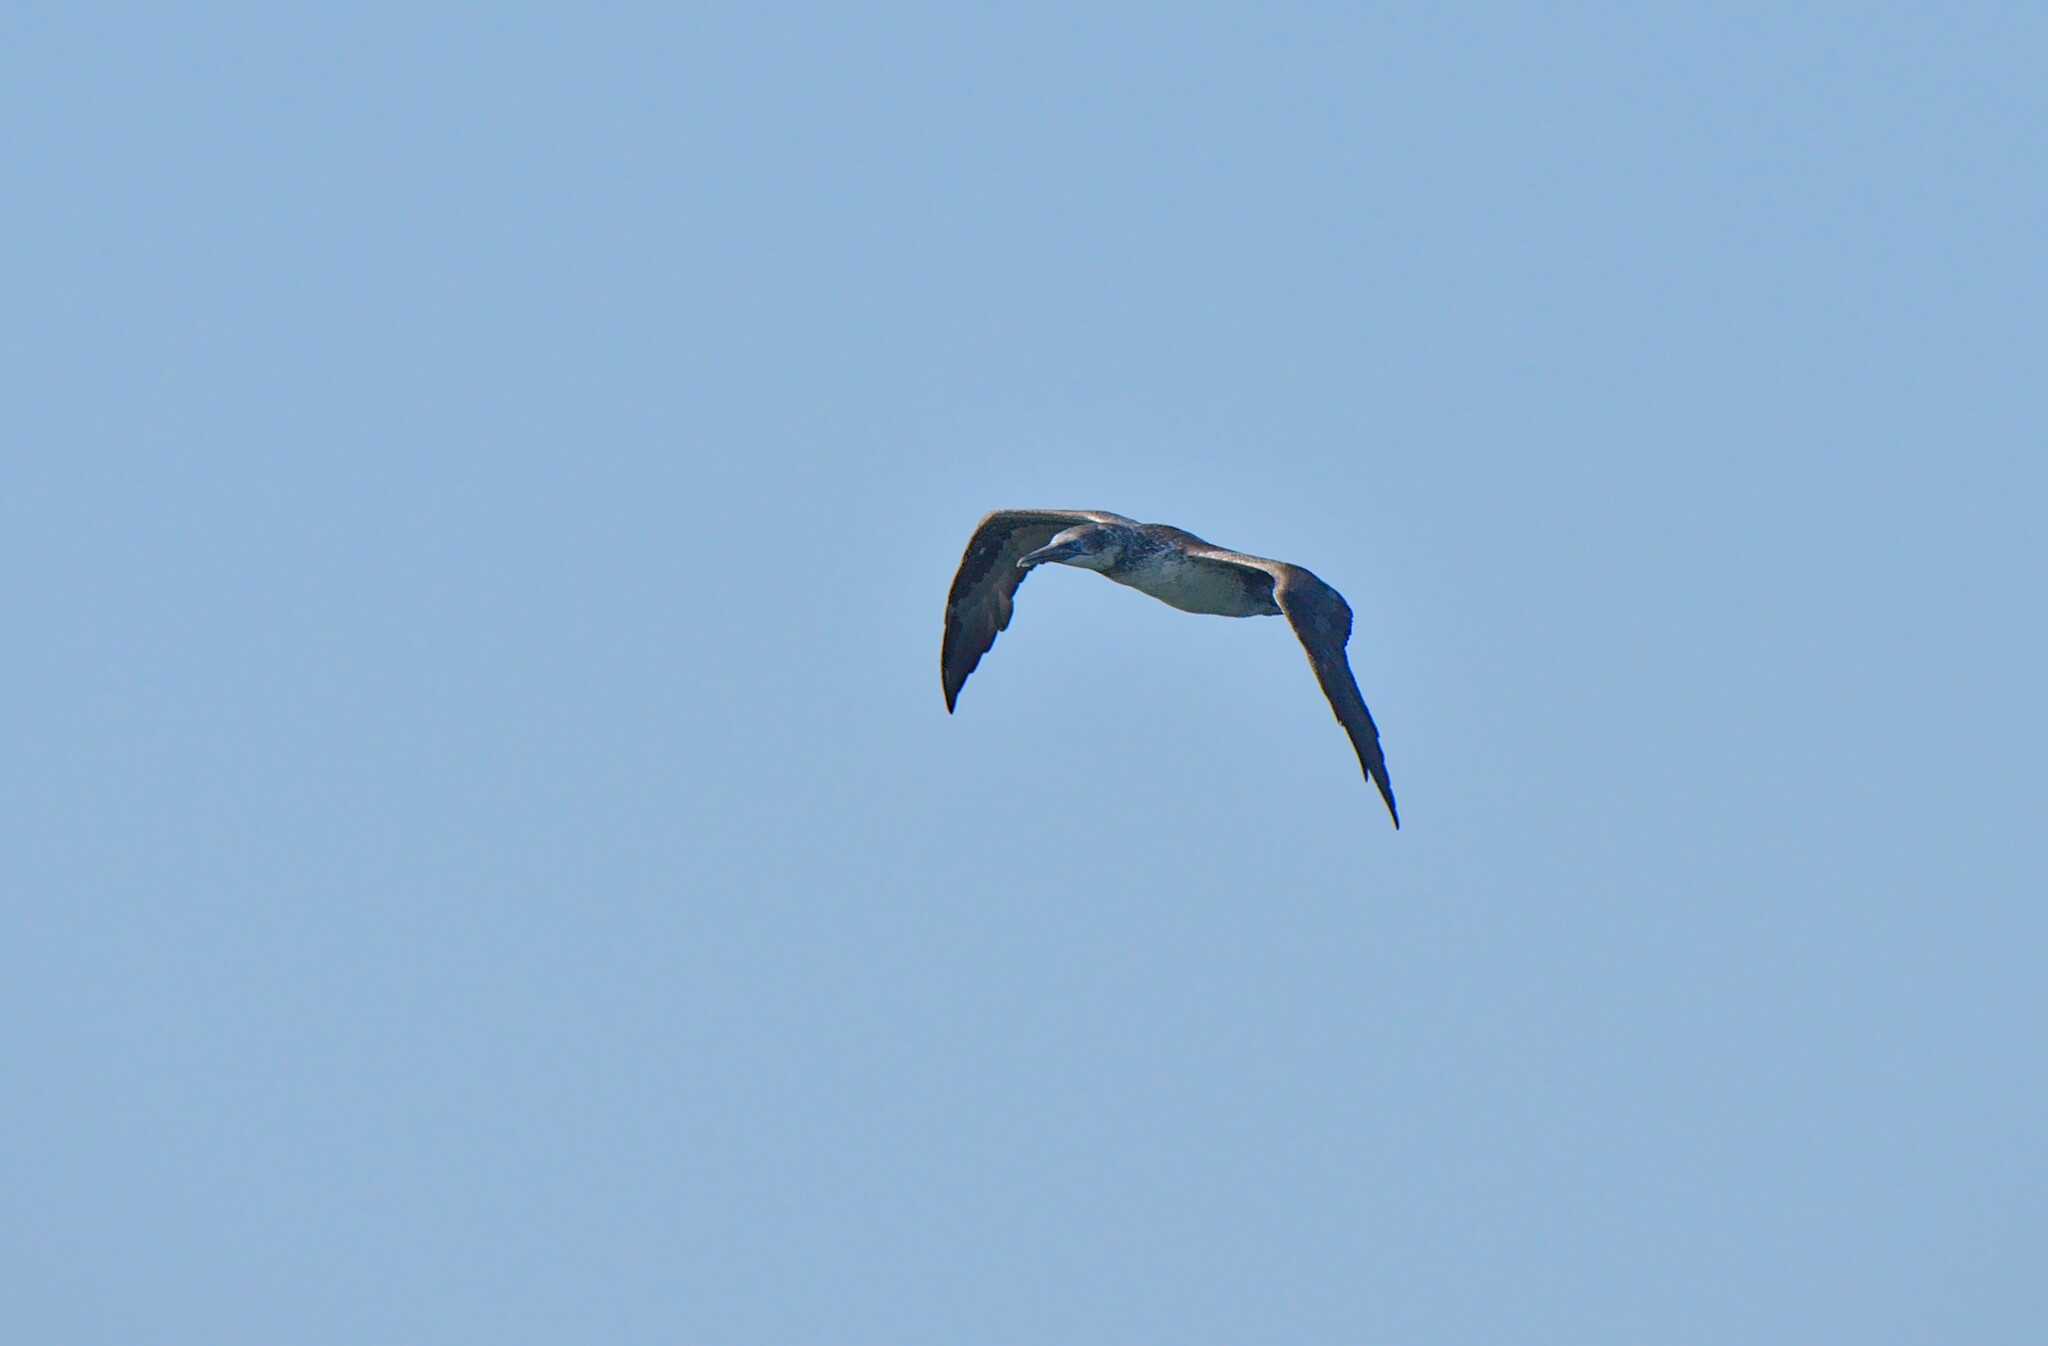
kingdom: Animalia
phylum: Chordata
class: Aves
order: Suliformes
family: Sulidae
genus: Morus
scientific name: Morus bassanus
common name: Northern gannet
